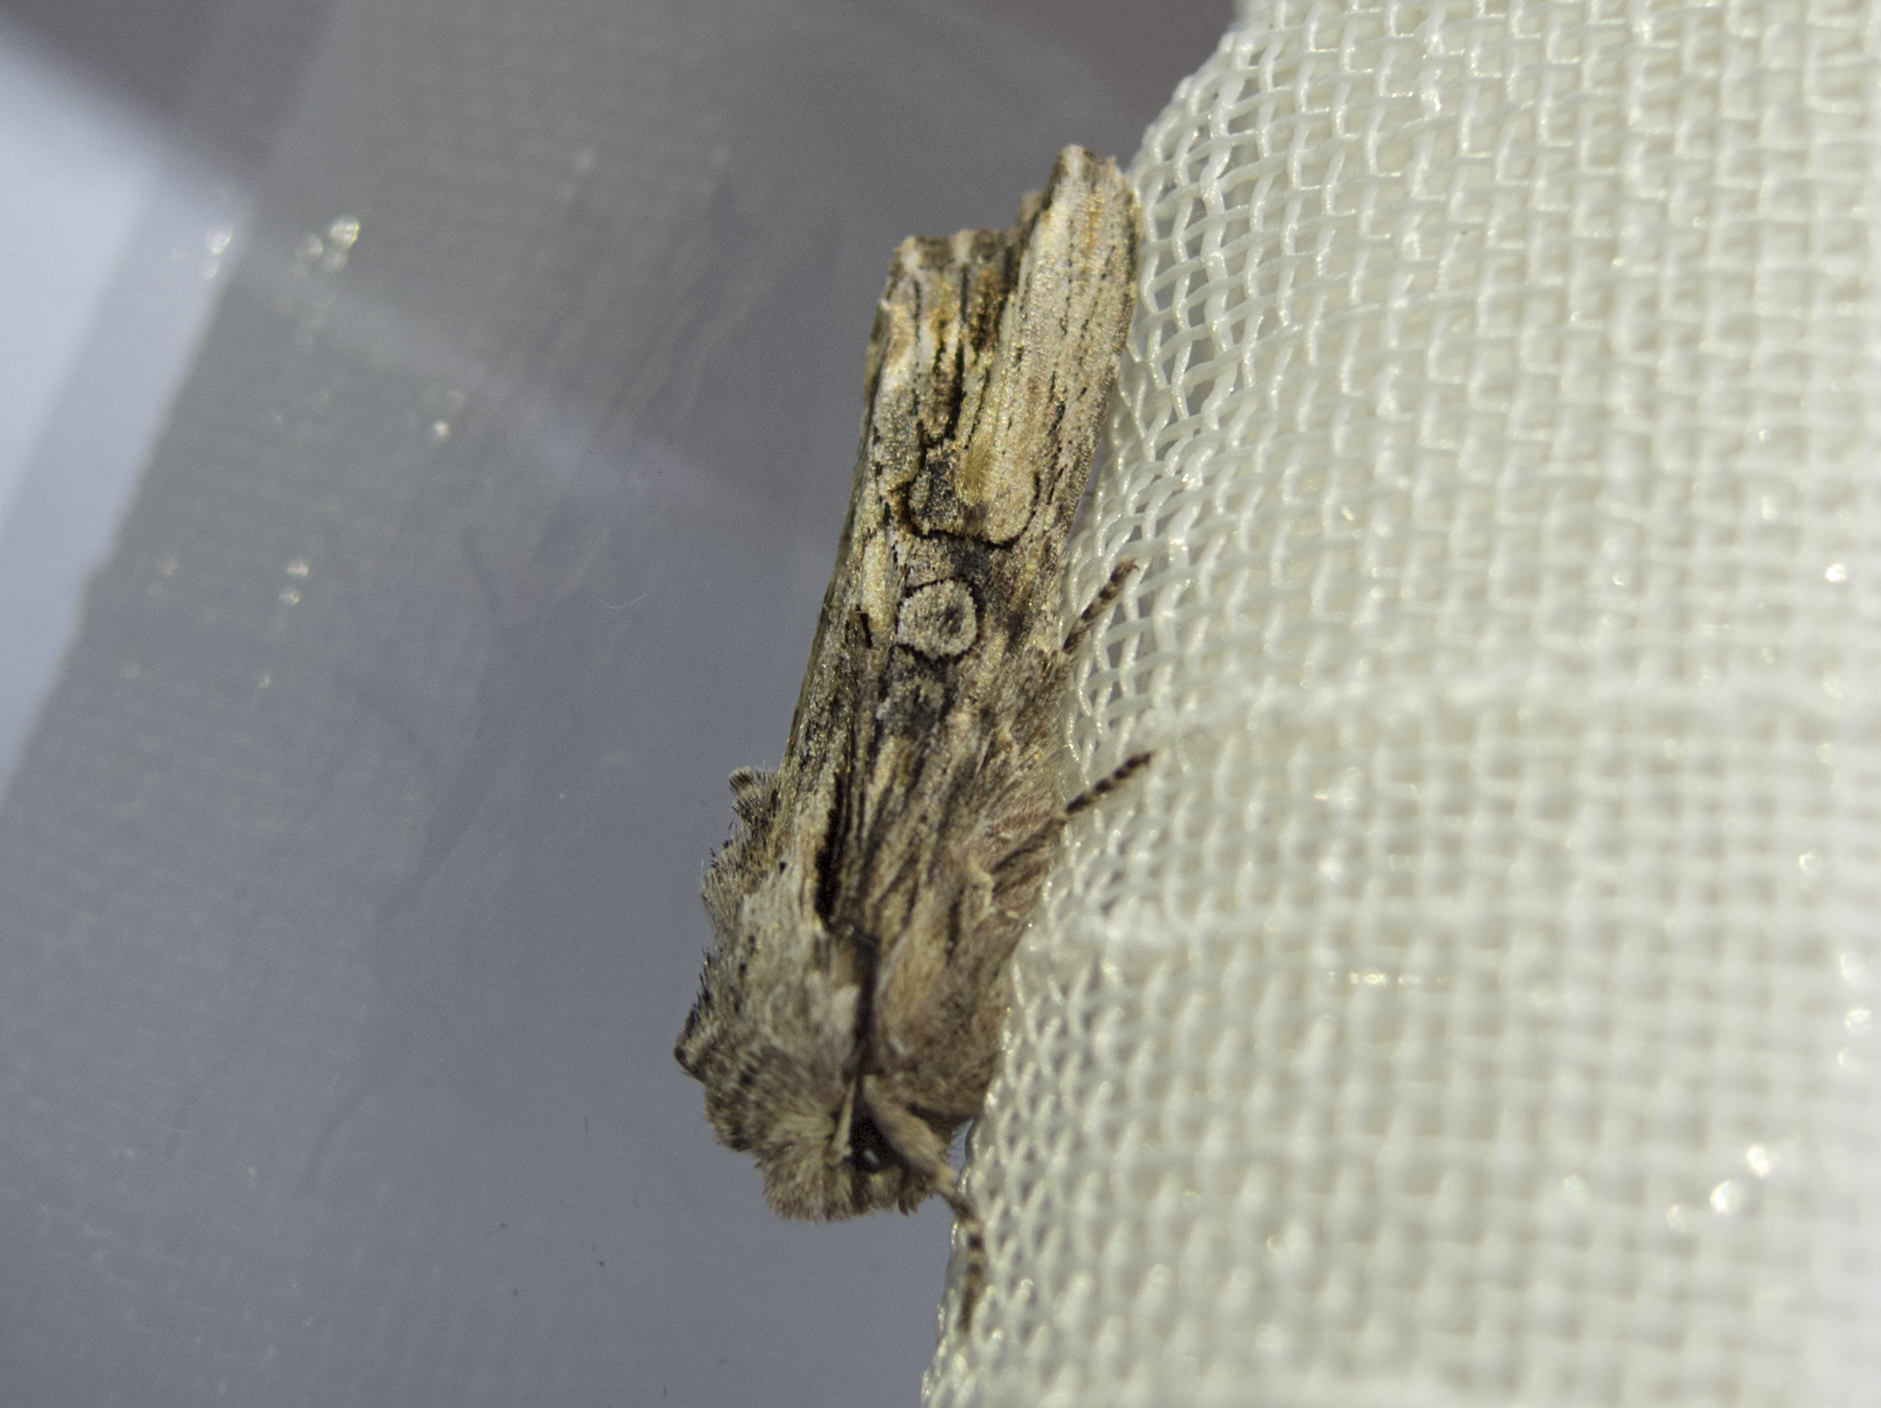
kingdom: Animalia
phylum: Arthropoda
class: Insecta
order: Lepidoptera
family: Noctuidae
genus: Egira
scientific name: Egira conspicillaris
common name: Silver cloud
